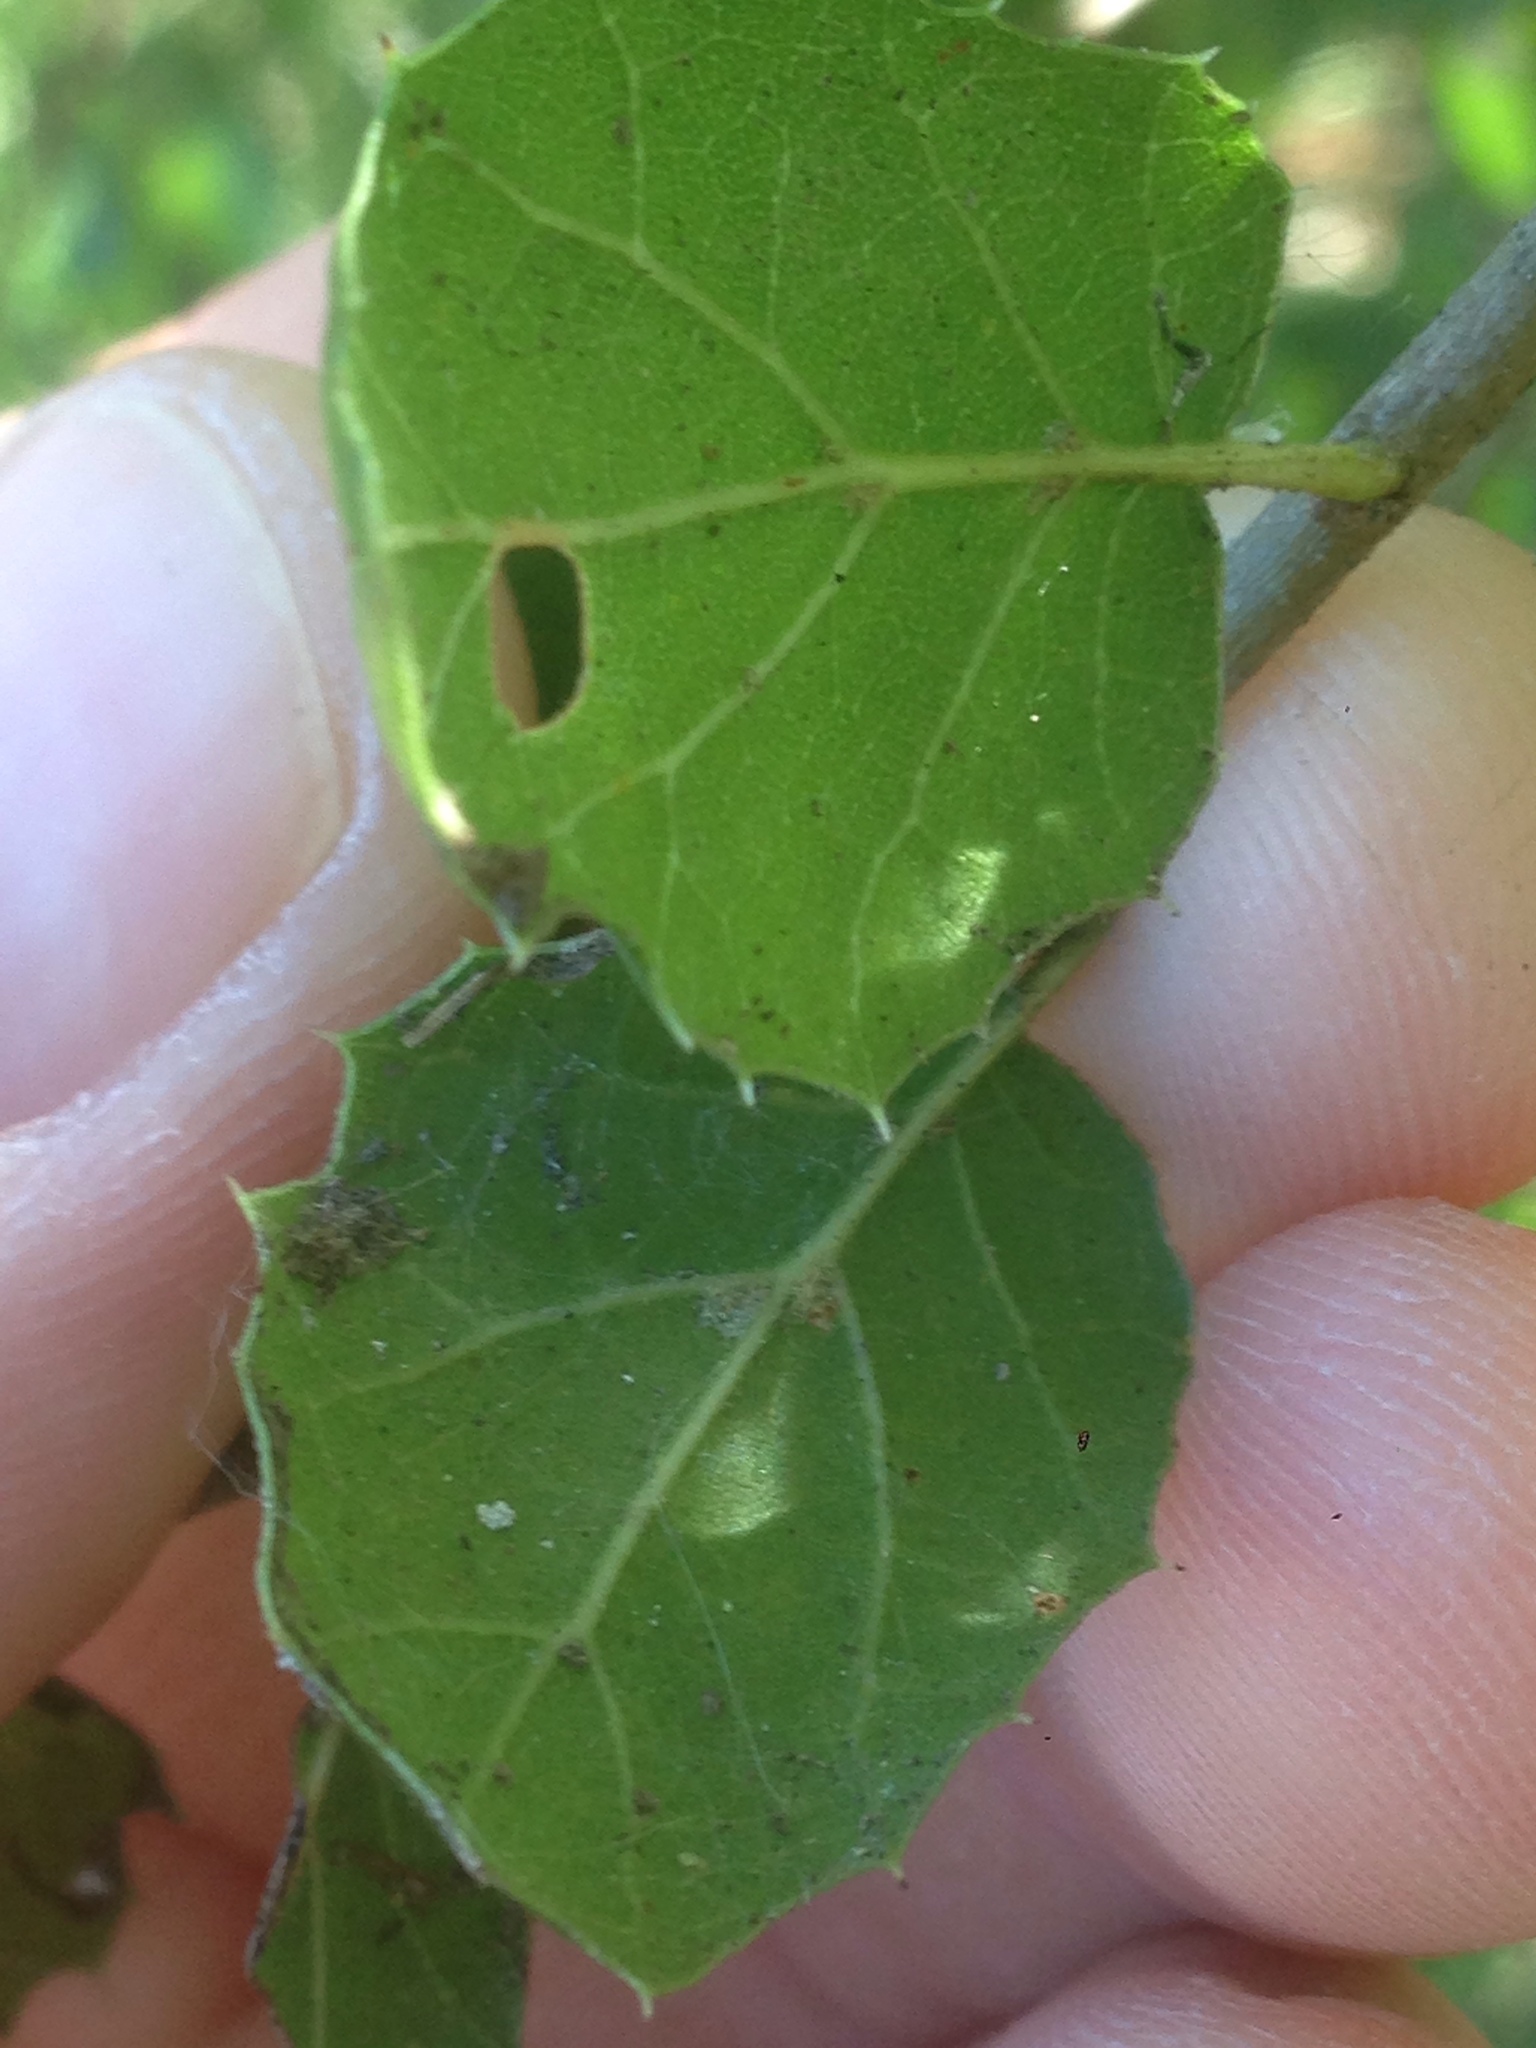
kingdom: Plantae
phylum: Tracheophyta
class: Magnoliopsida
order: Fagales
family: Fagaceae
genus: Quercus
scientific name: Quercus agrifolia
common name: California live oak
